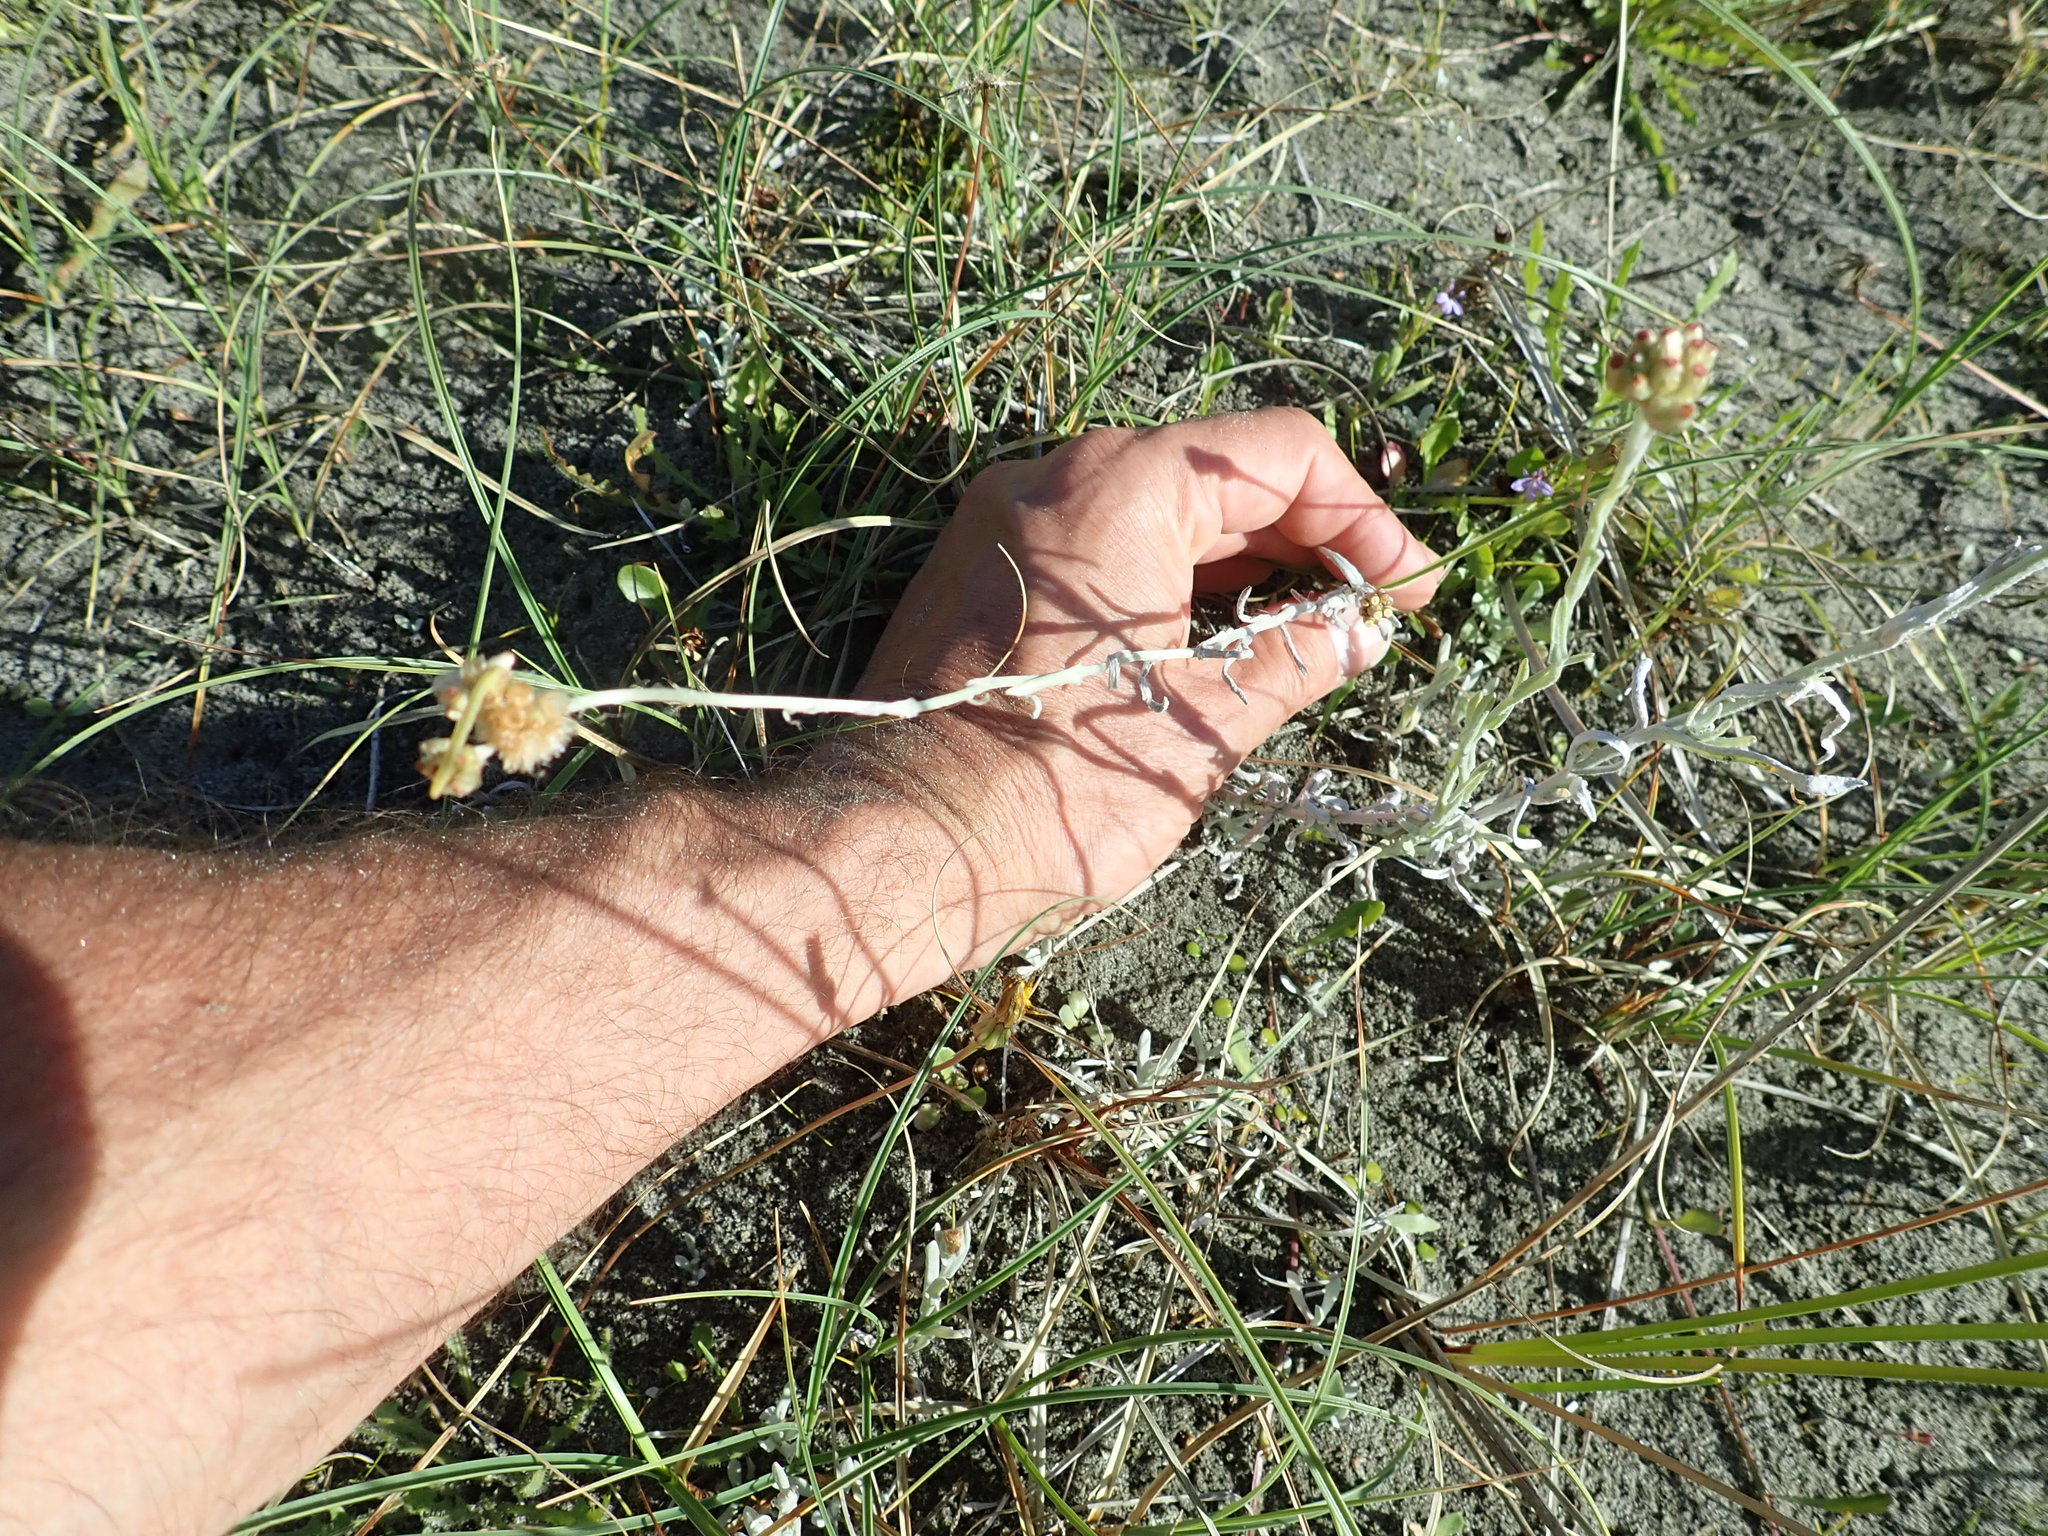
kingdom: Plantae
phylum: Tracheophyta
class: Magnoliopsida
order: Asterales
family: Asteraceae
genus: Helichrysum
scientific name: Helichrysum luteoalbum
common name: Daisy
